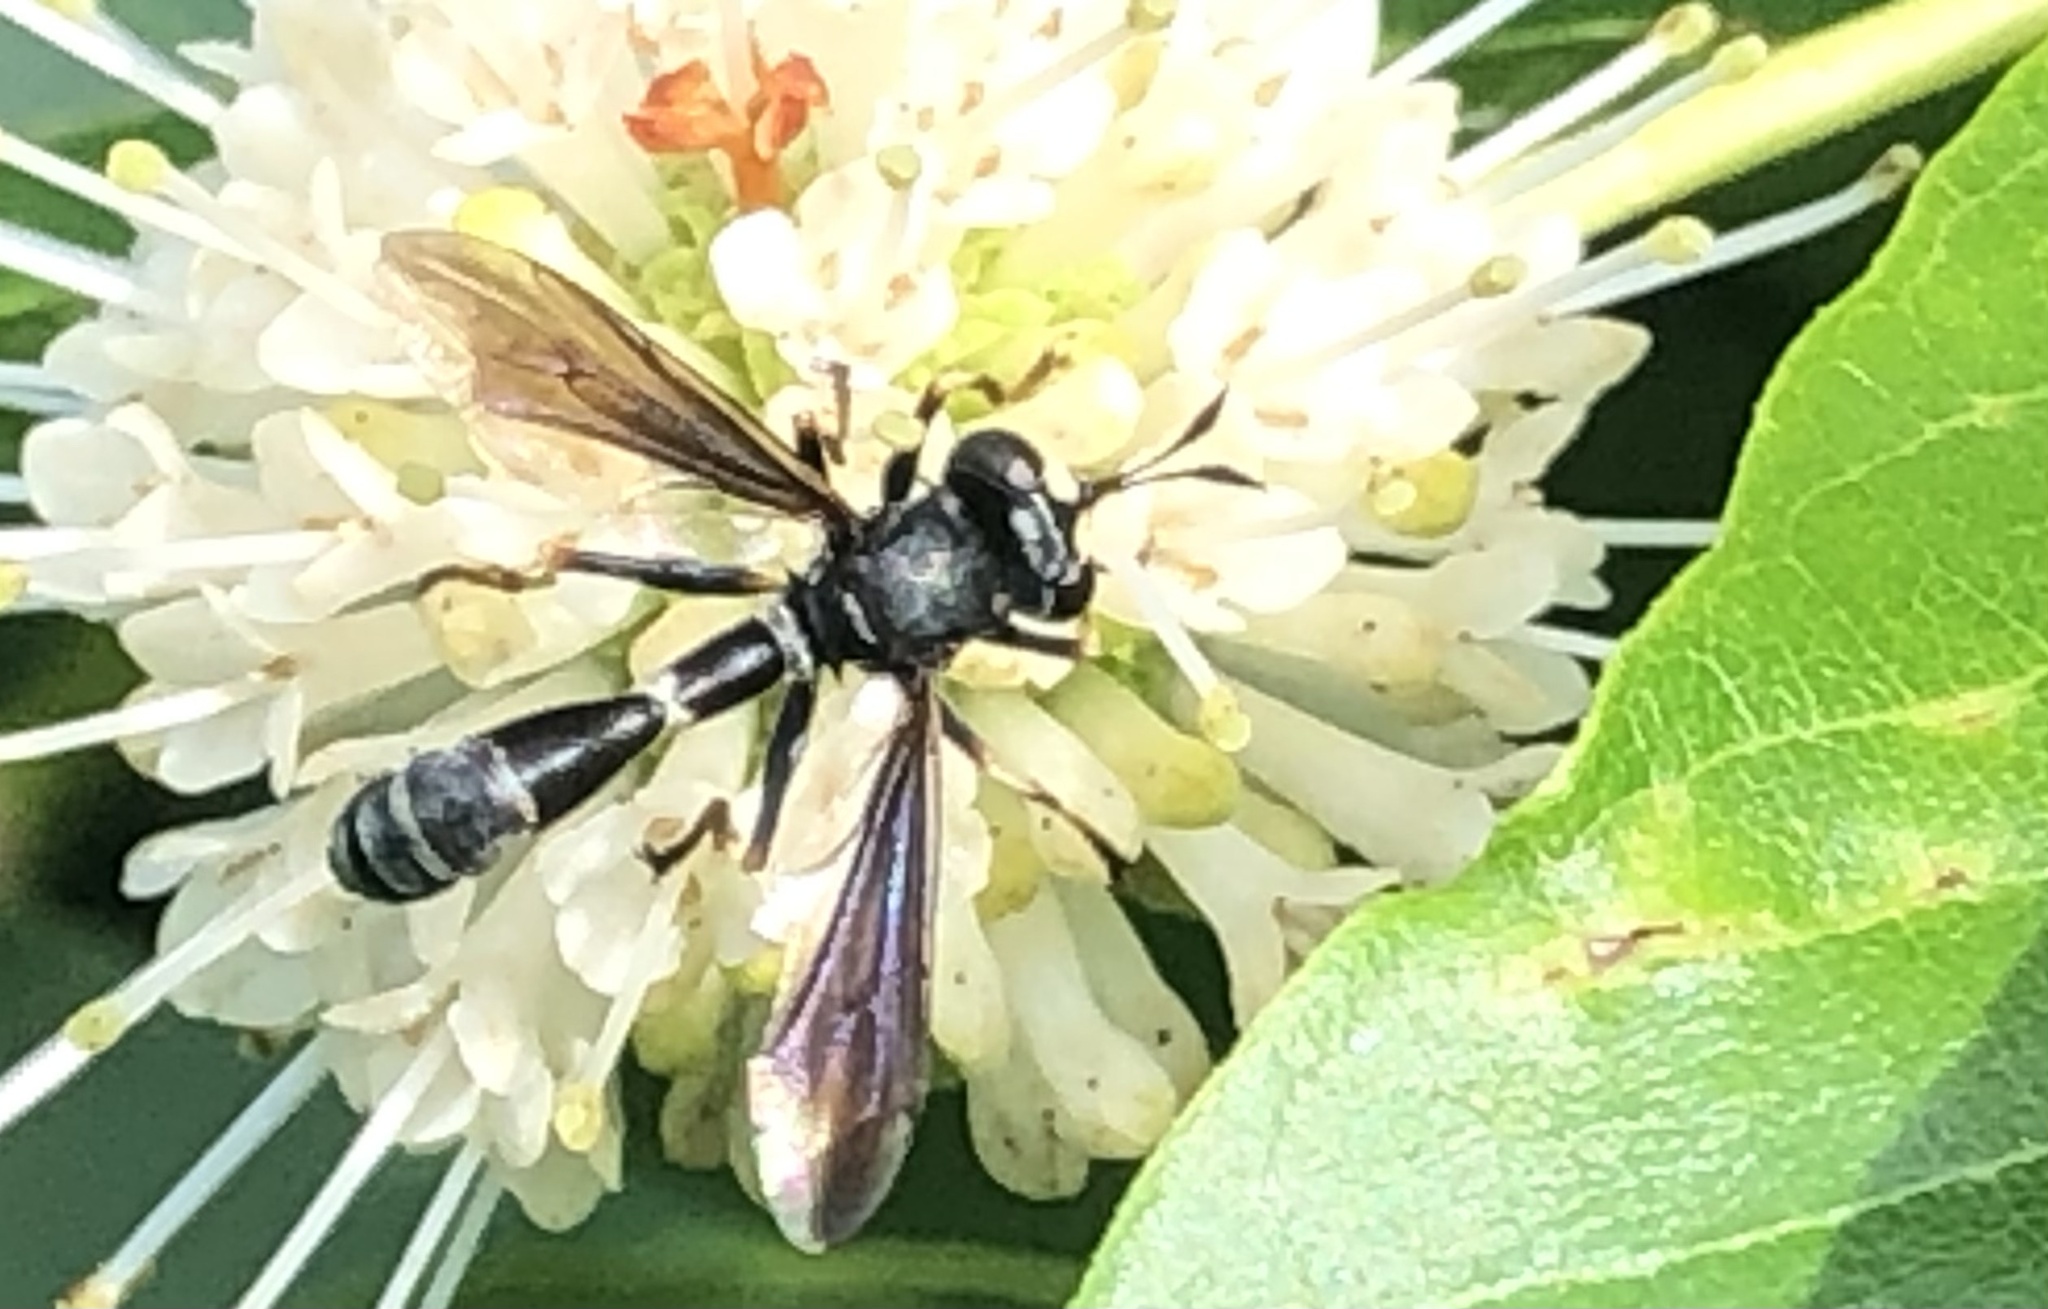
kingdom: Animalia
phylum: Arthropoda
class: Insecta
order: Diptera
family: Conopidae
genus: Physocephala
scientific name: Physocephala tibialis
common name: Common eastern physocephala
